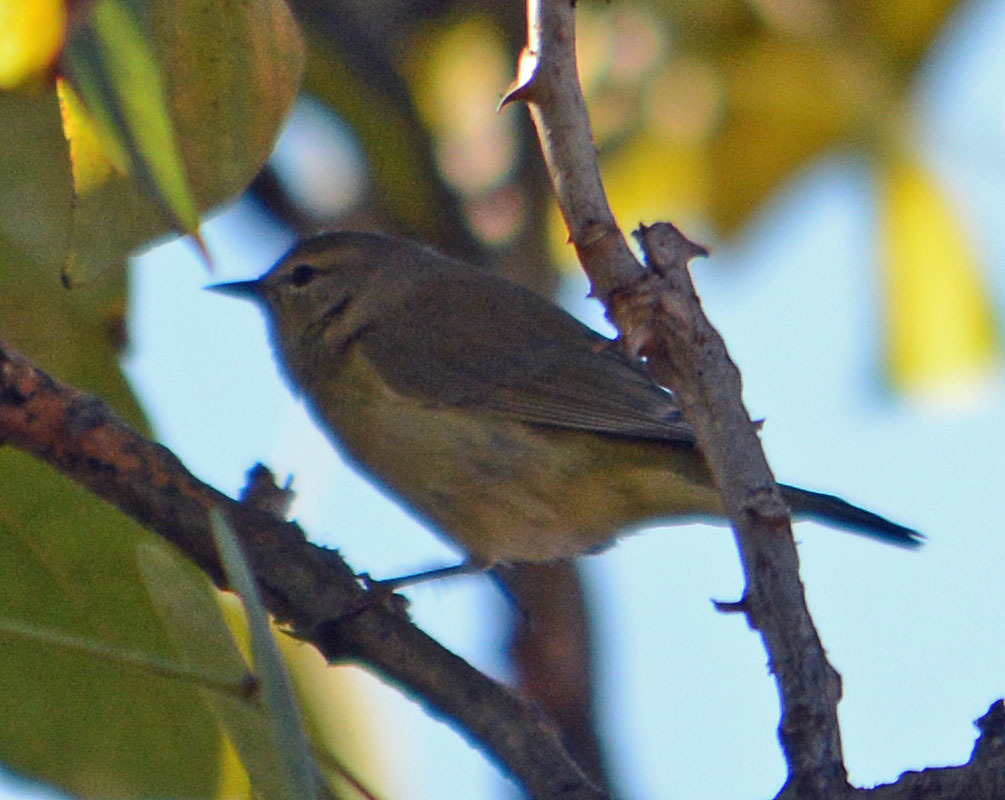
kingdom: Animalia
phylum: Chordata
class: Aves
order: Passeriformes
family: Parulidae
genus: Leiothlypis
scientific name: Leiothlypis celata
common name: Orange-crowned warbler
